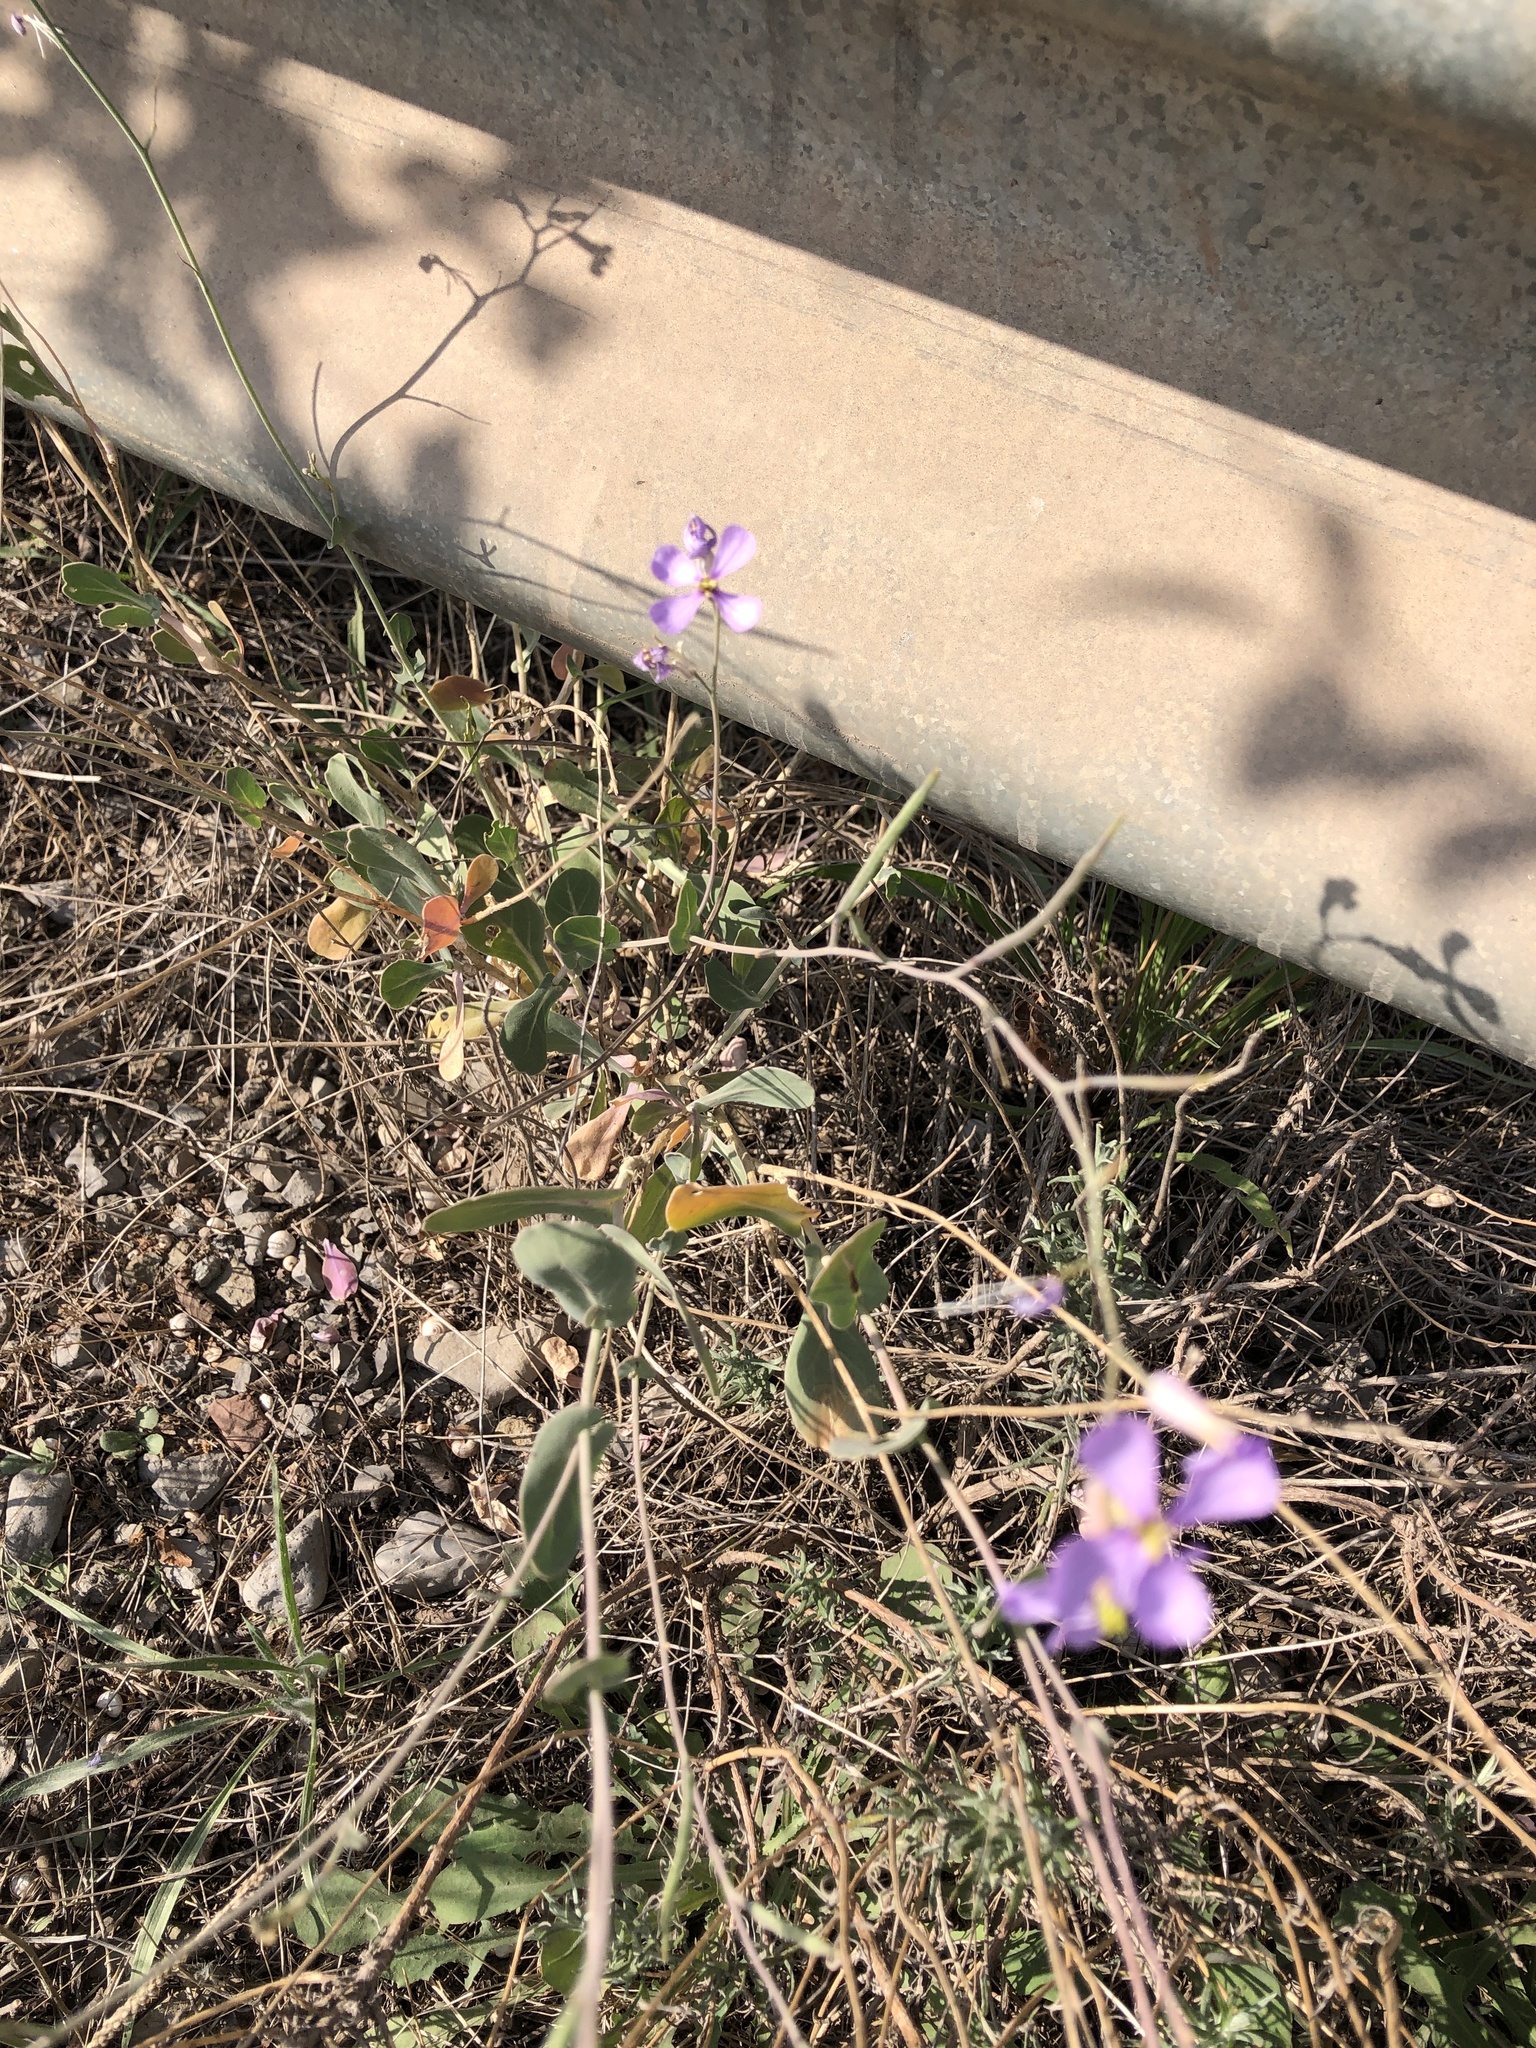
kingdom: Plantae
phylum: Tracheophyta
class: Magnoliopsida
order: Brassicales
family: Brassicaceae
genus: Moricandia
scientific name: Moricandia arvensis
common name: Purple mistress
